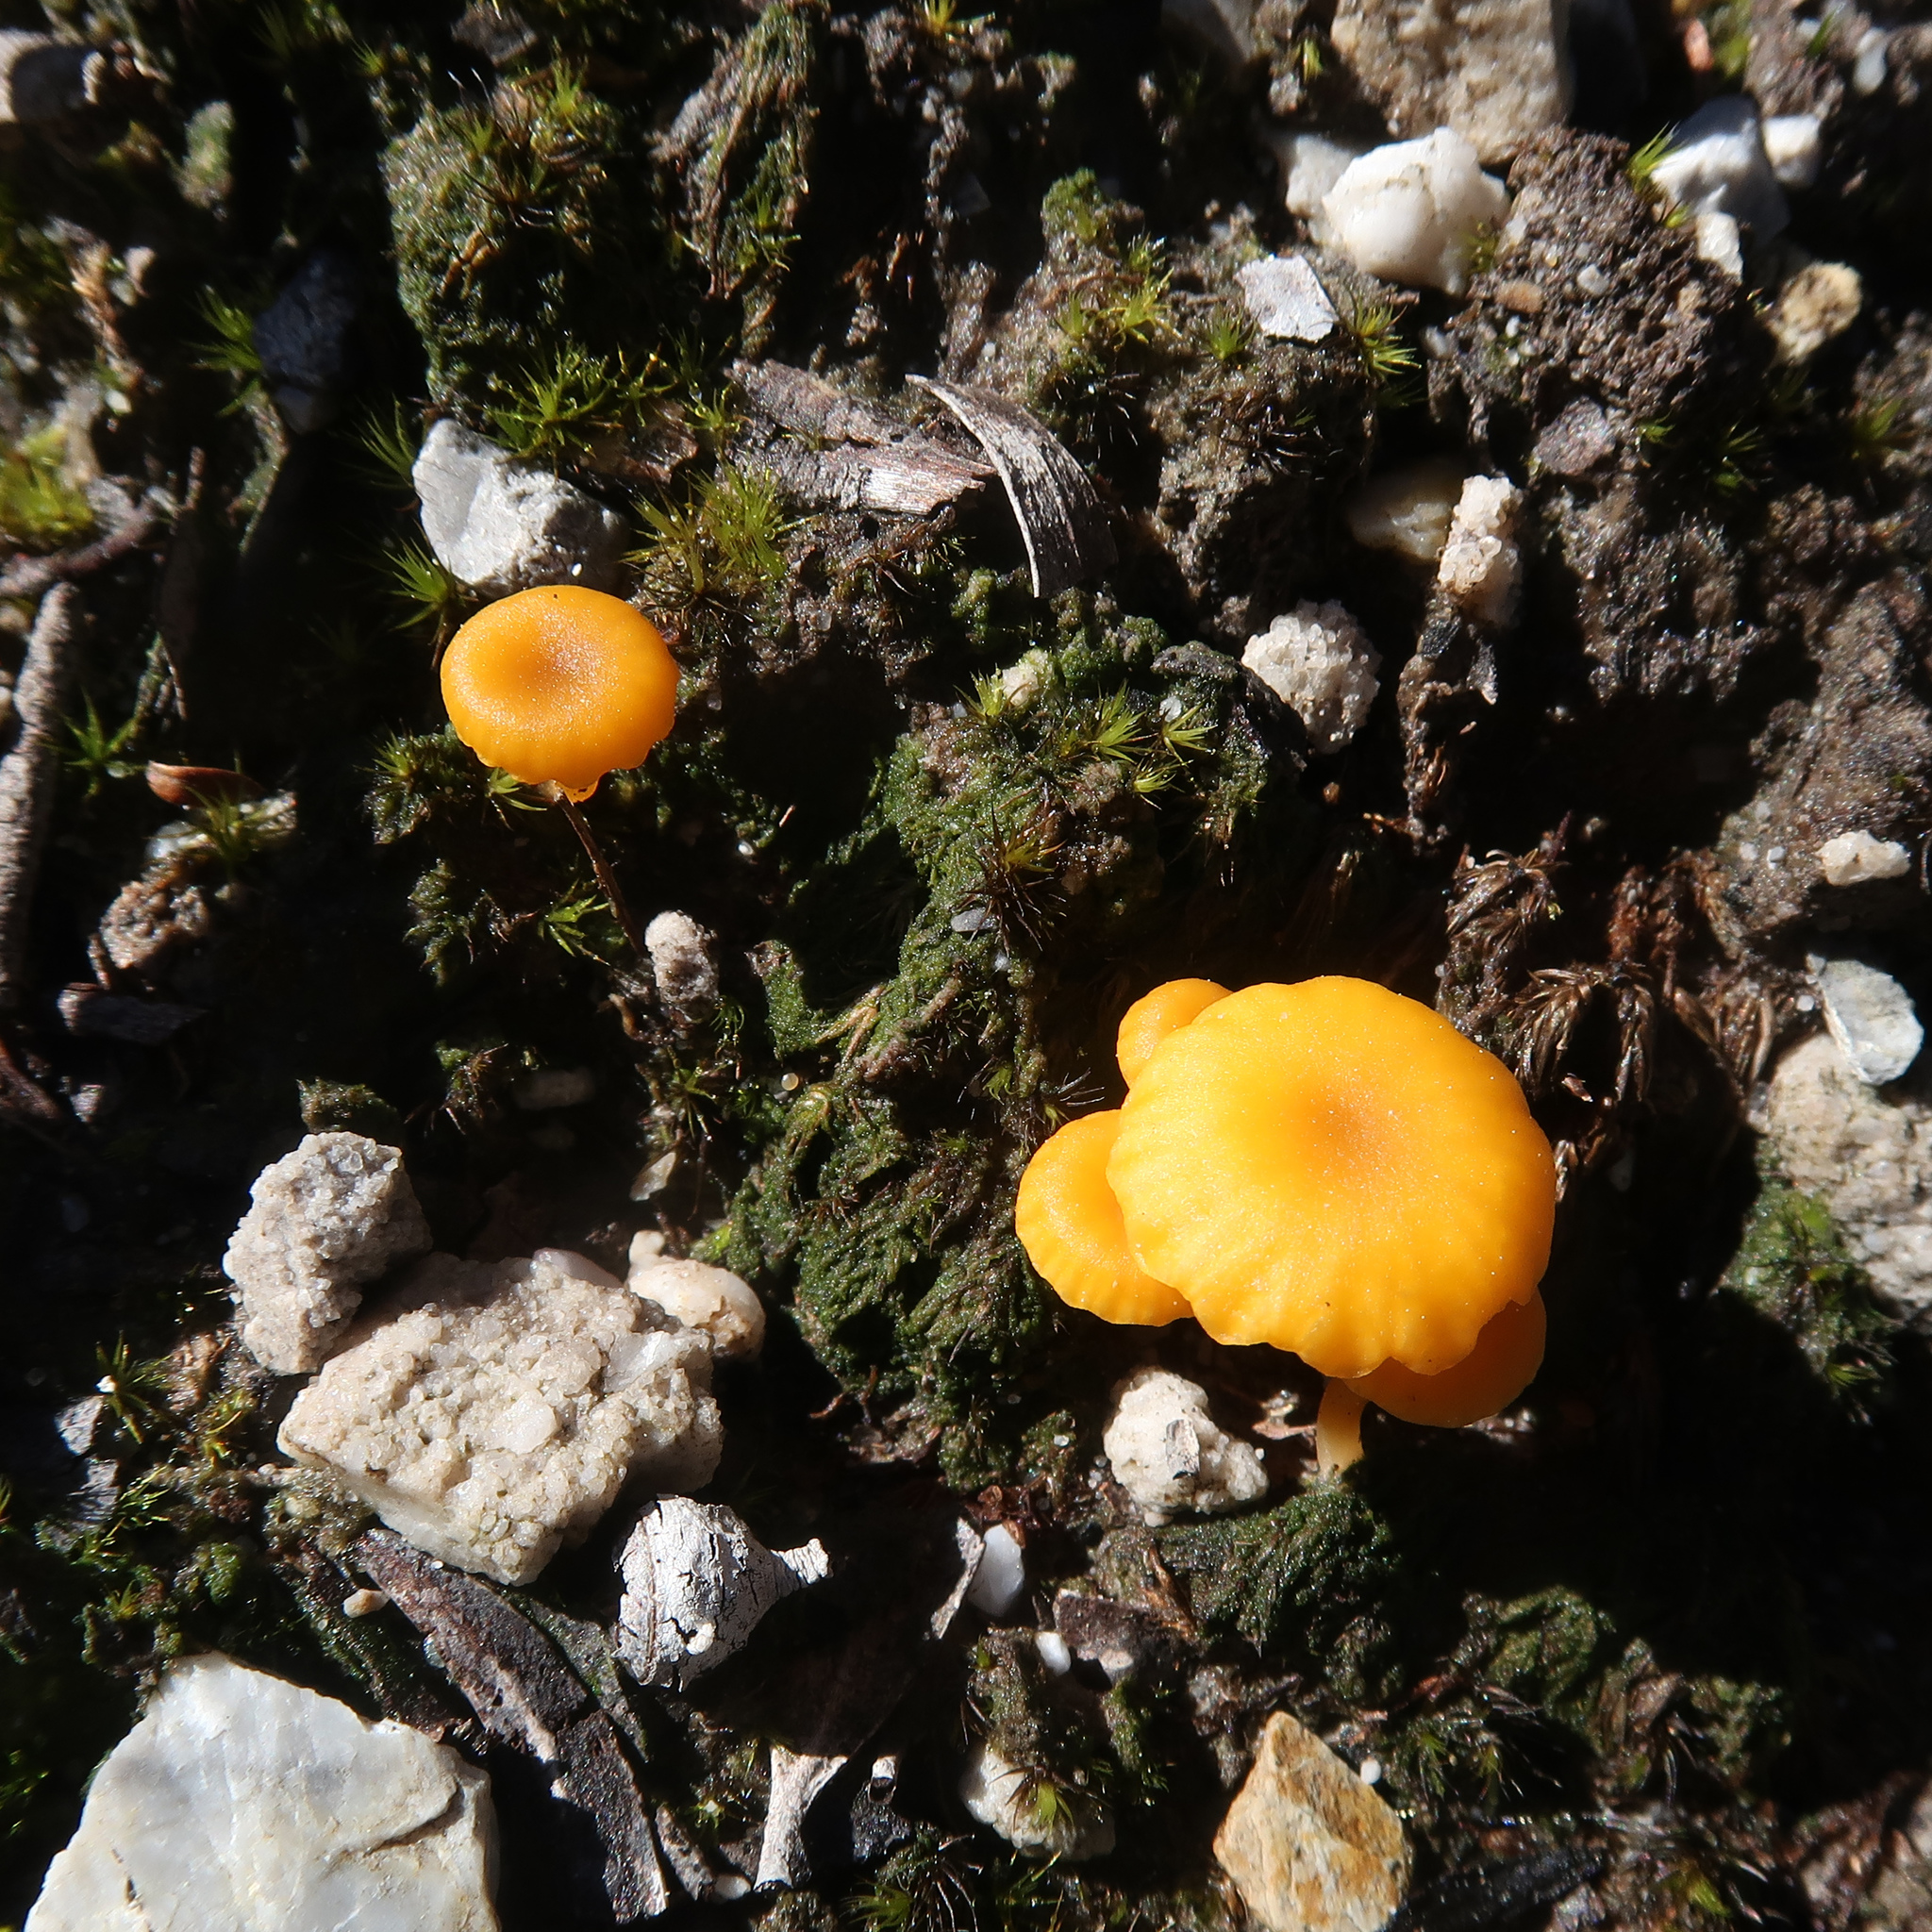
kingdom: Fungi
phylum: Basidiomycota
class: Agaricomycetes
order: Agaricales
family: Hygrophoraceae
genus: Lichenomphalia
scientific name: Lichenomphalia chromacea
